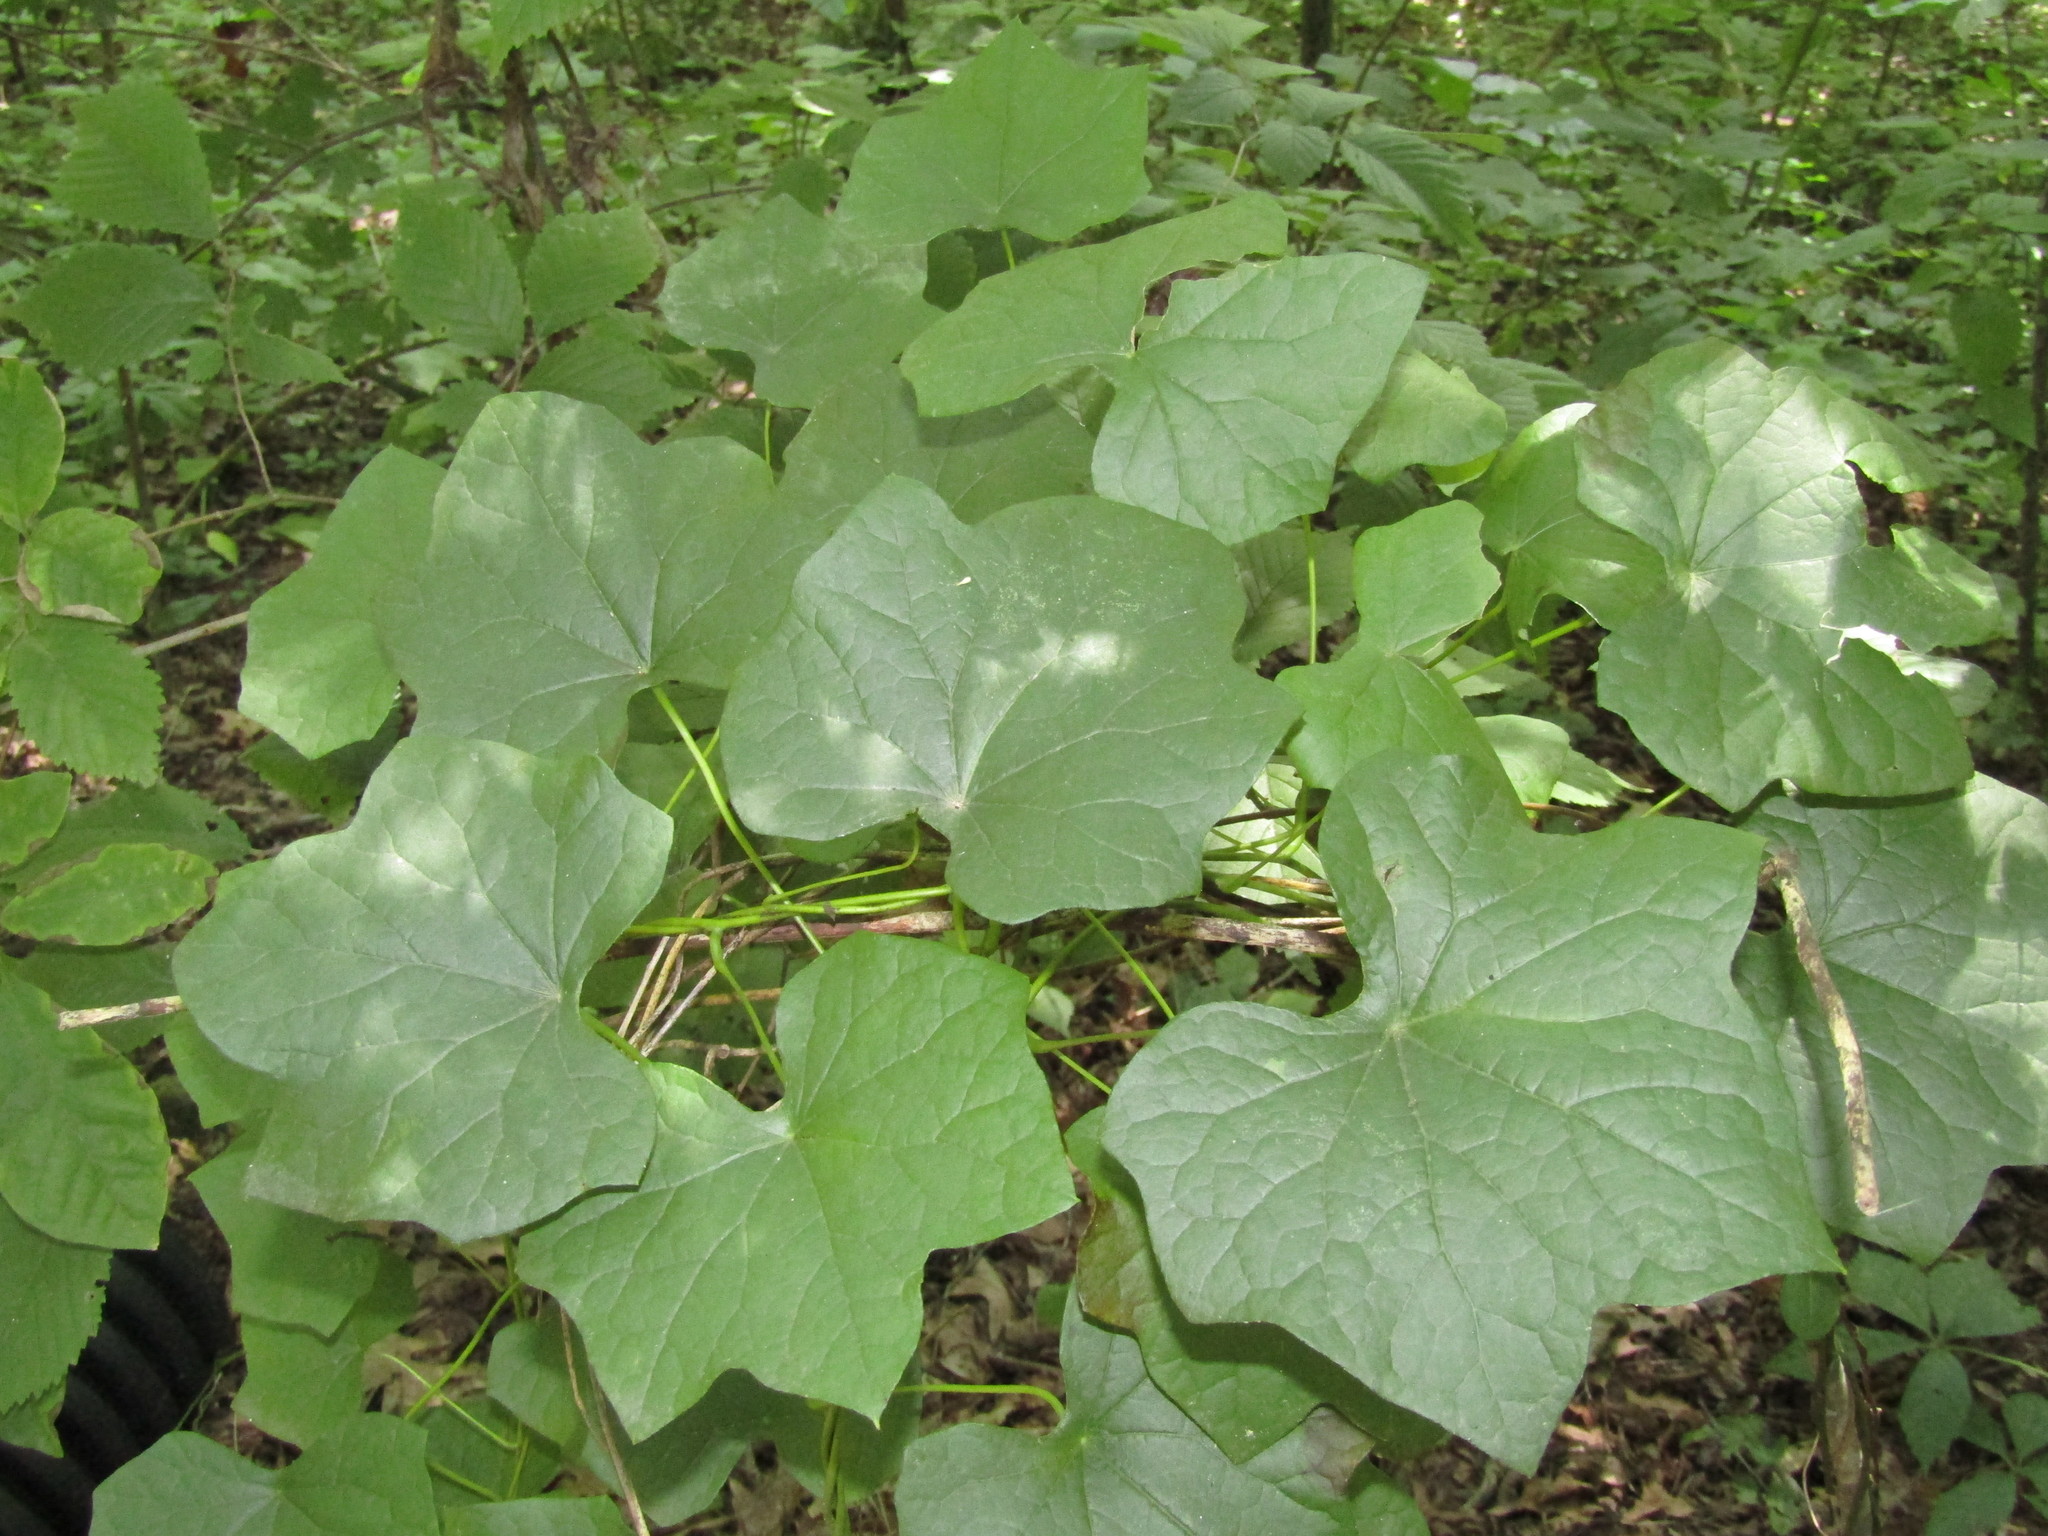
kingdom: Plantae
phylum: Tracheophyta
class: Magnoliopsida
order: Ranunculales
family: Menispermaceae
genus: Menispermum
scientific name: Menispermum canadense
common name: Moonseed
